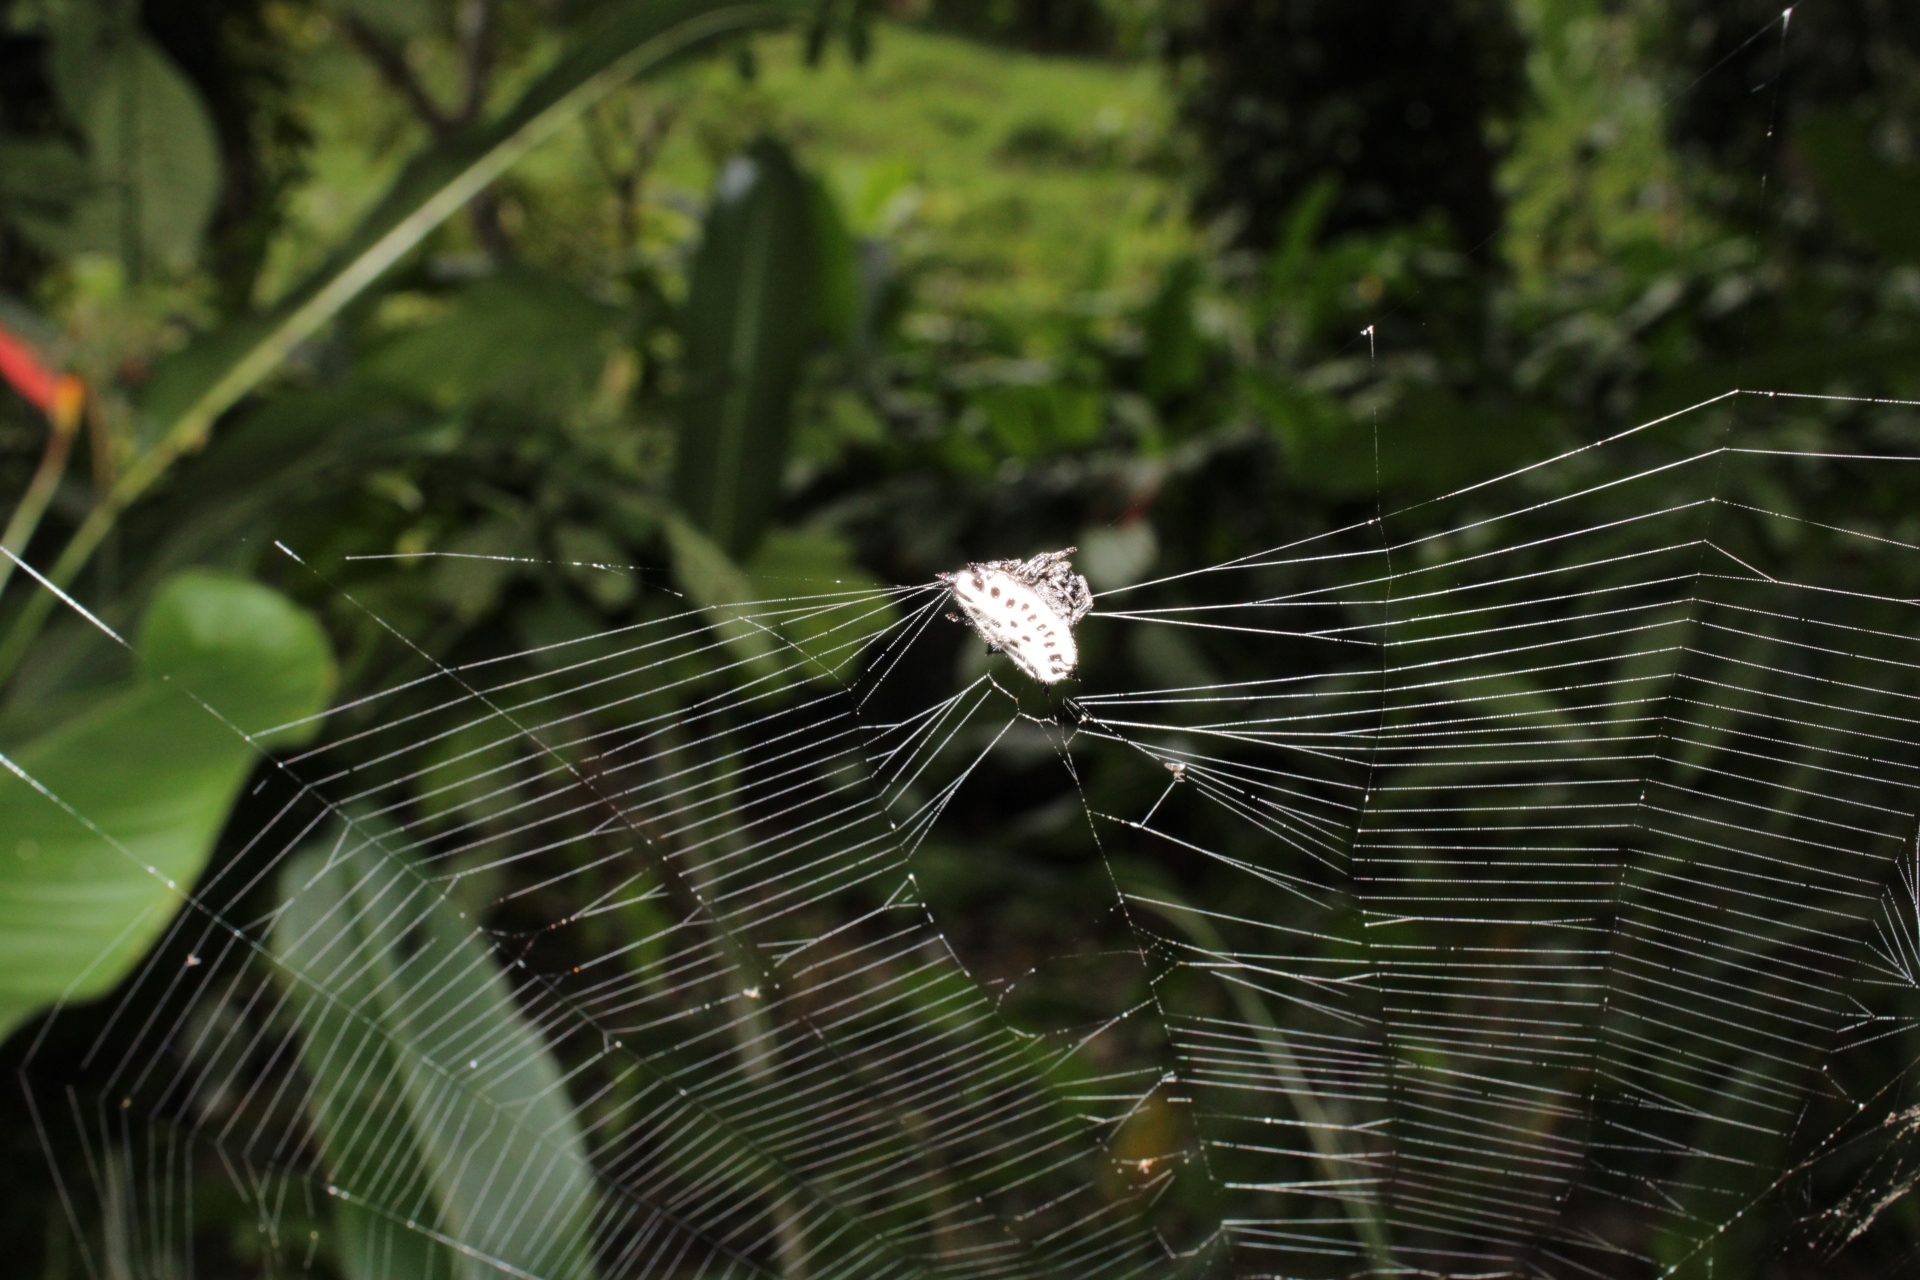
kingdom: Animalia
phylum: Arthropoda
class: Arachnida
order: Araneae
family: Araneidae
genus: Gasteracantha
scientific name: Gasteracantha cancriformis
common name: Orb weavers
